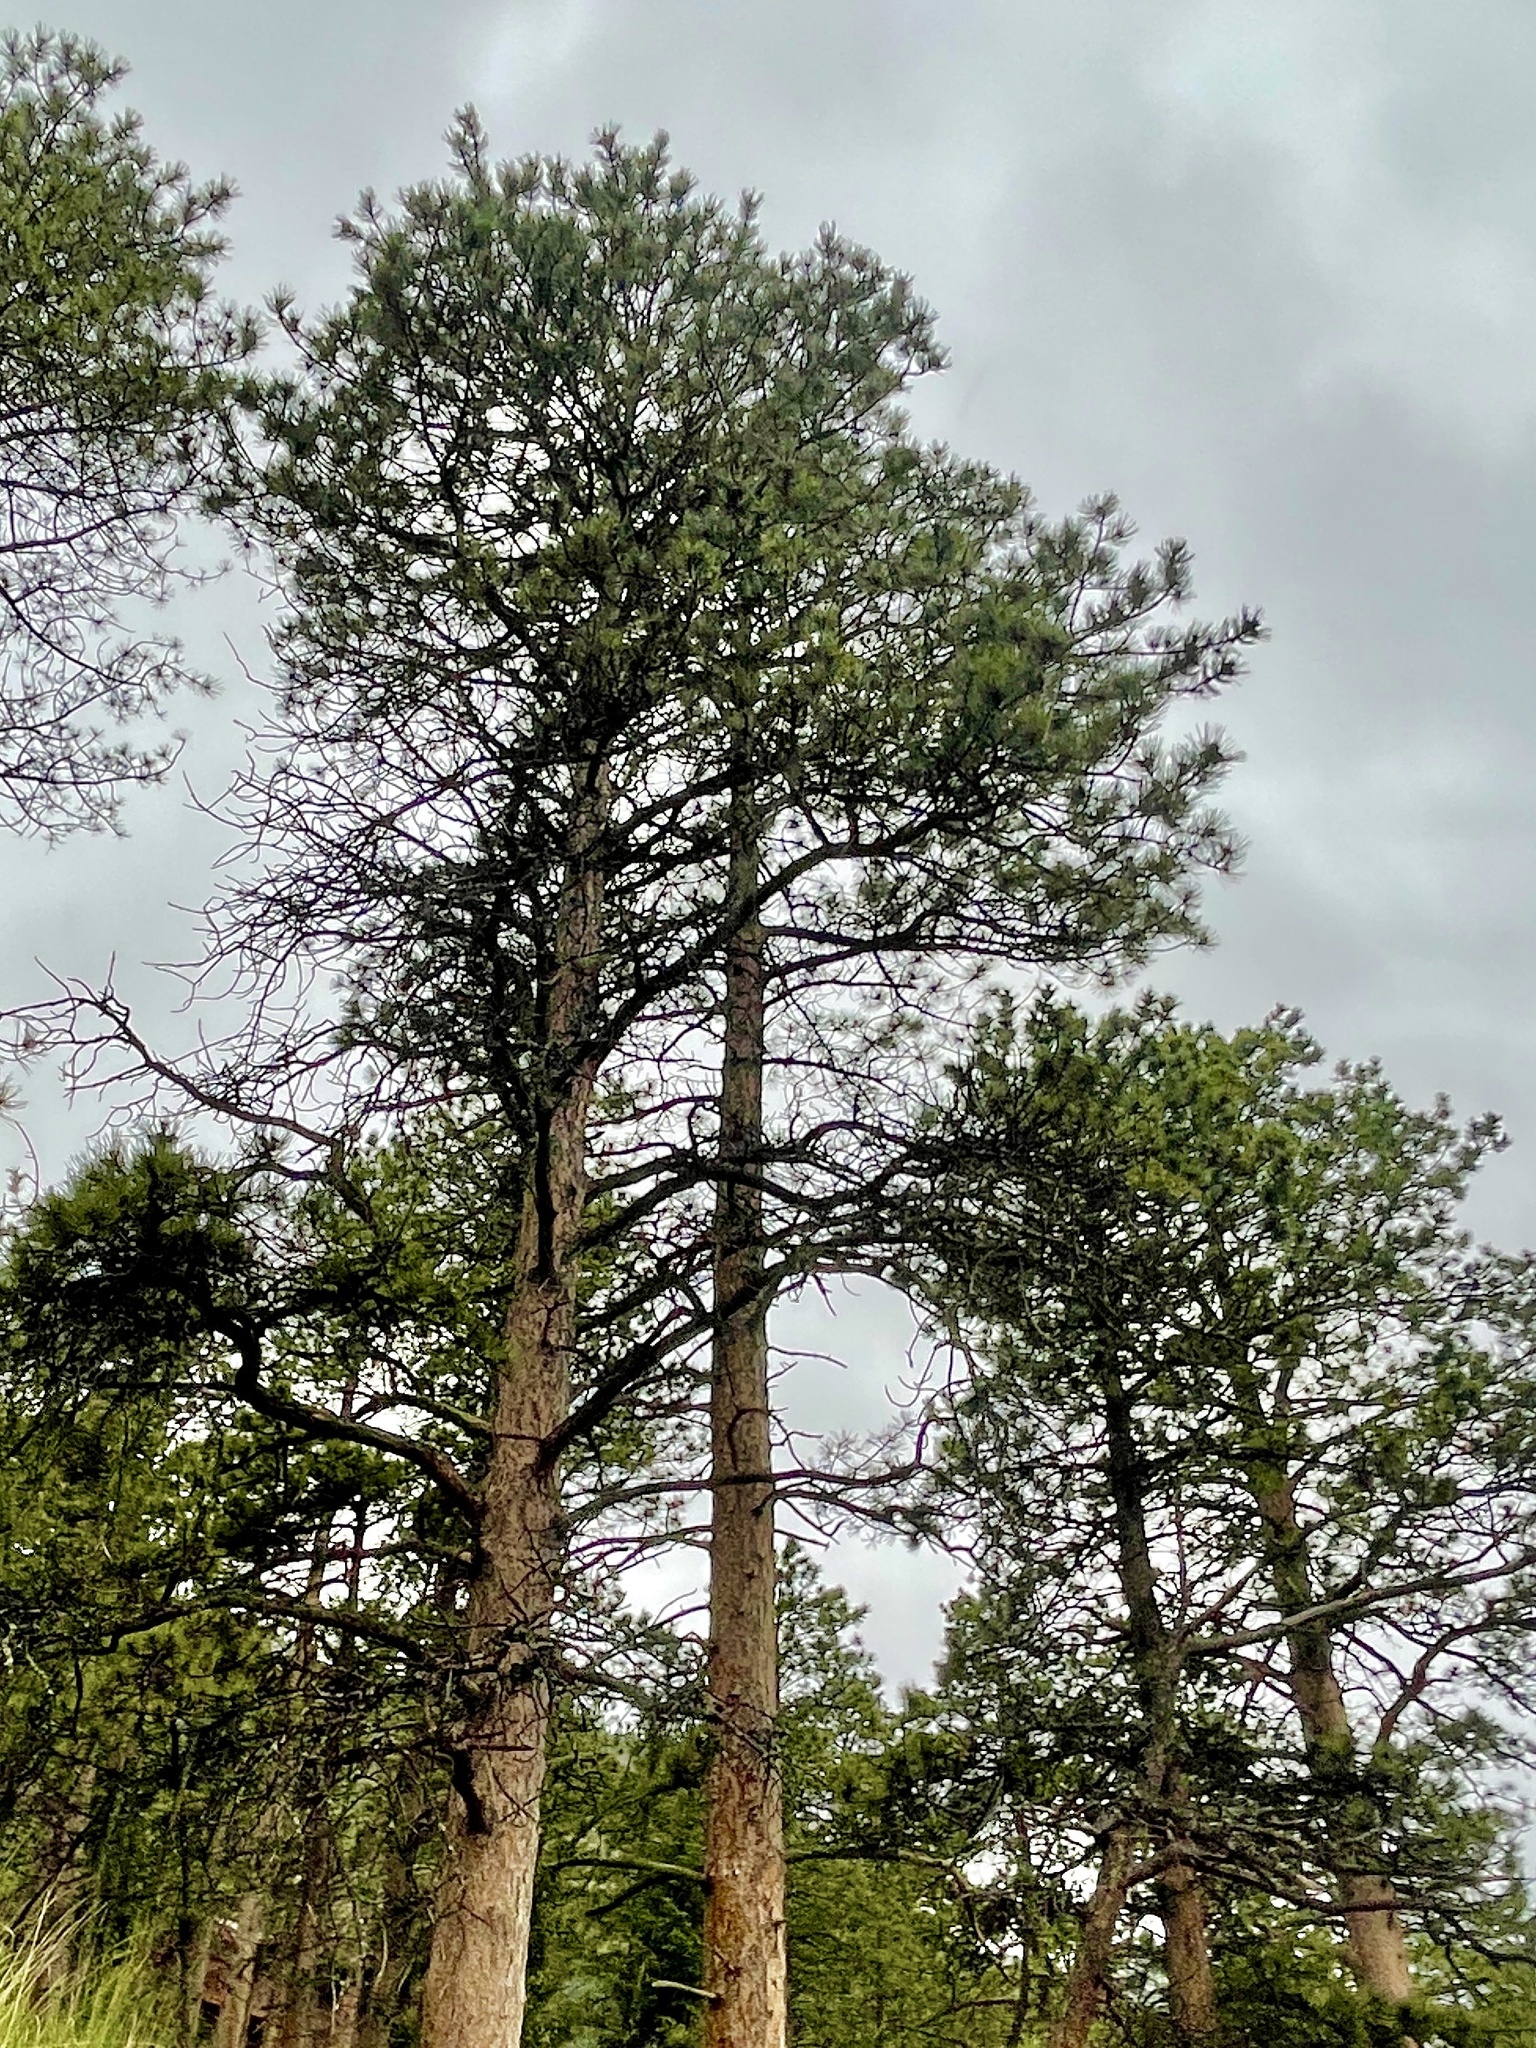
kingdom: Plantae
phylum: Tracheophyta
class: Pinopsida
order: Pinales
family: Pinaceae
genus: Pinus
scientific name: Pinus ponderosa
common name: Western yellow-pine
